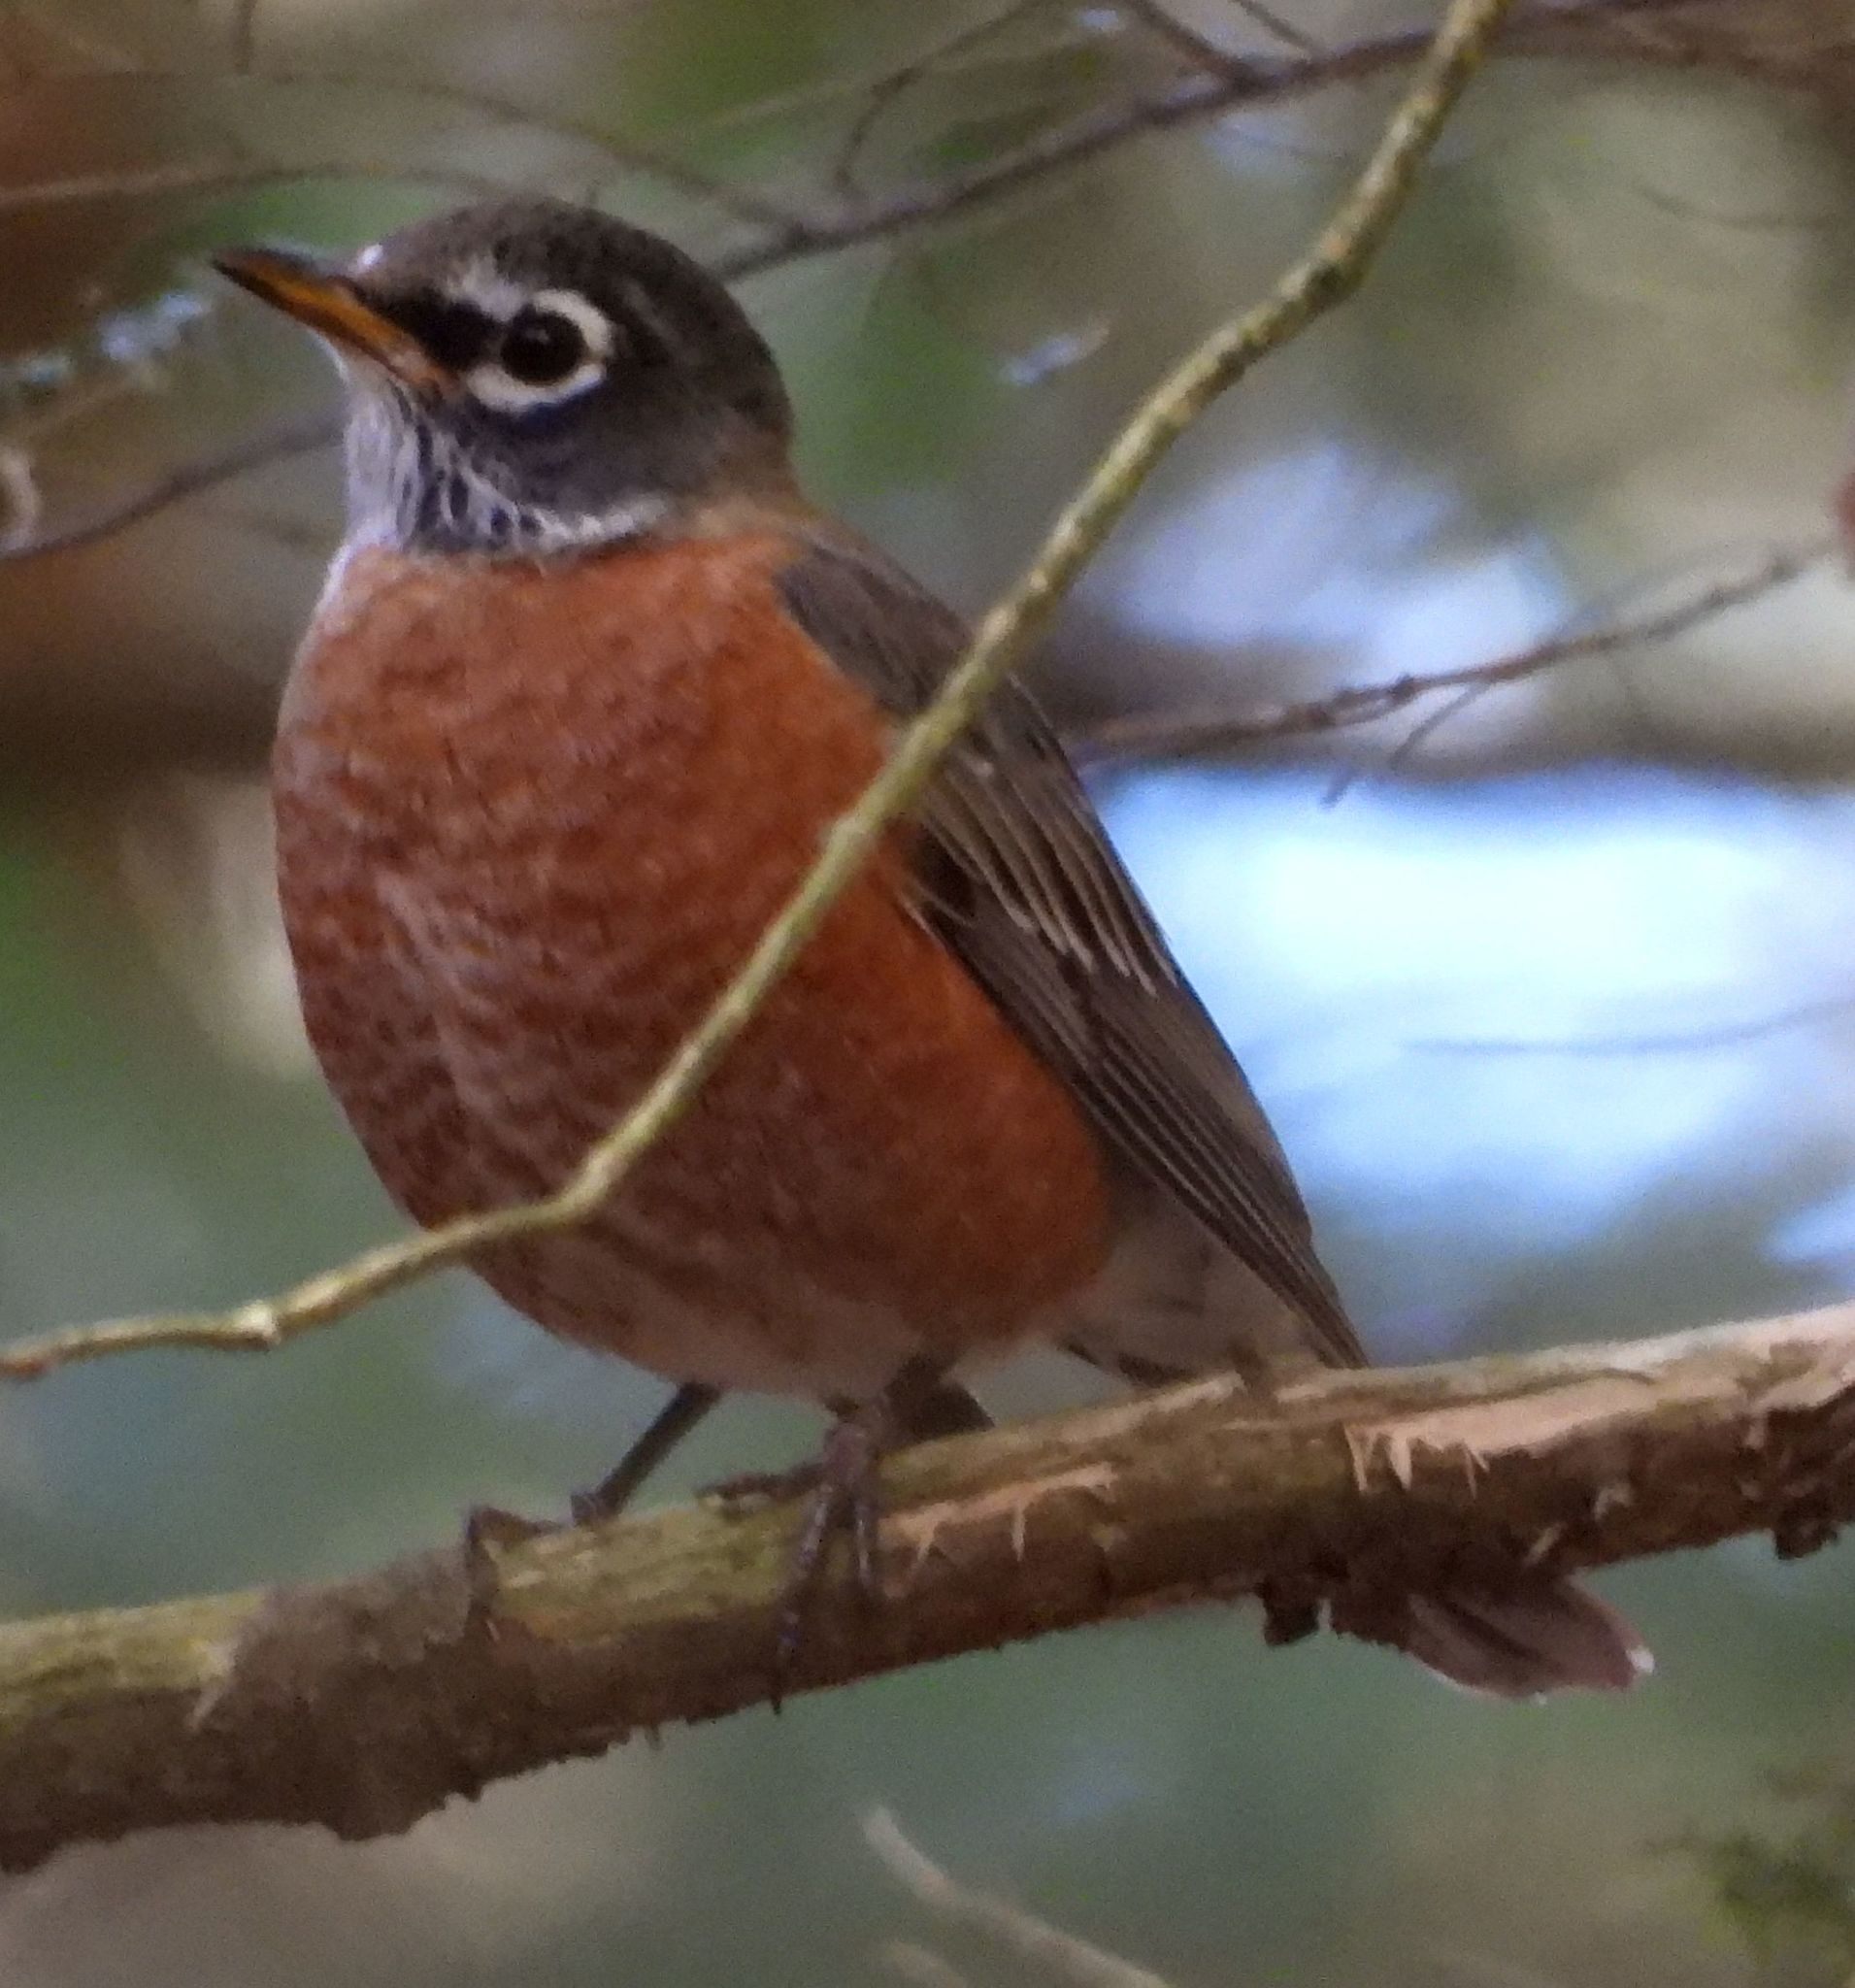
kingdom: Animalia
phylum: Chordata
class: Aves
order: Passeriformes
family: Turdidae
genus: Turdus
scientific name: Turdus migratorius
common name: American robin
